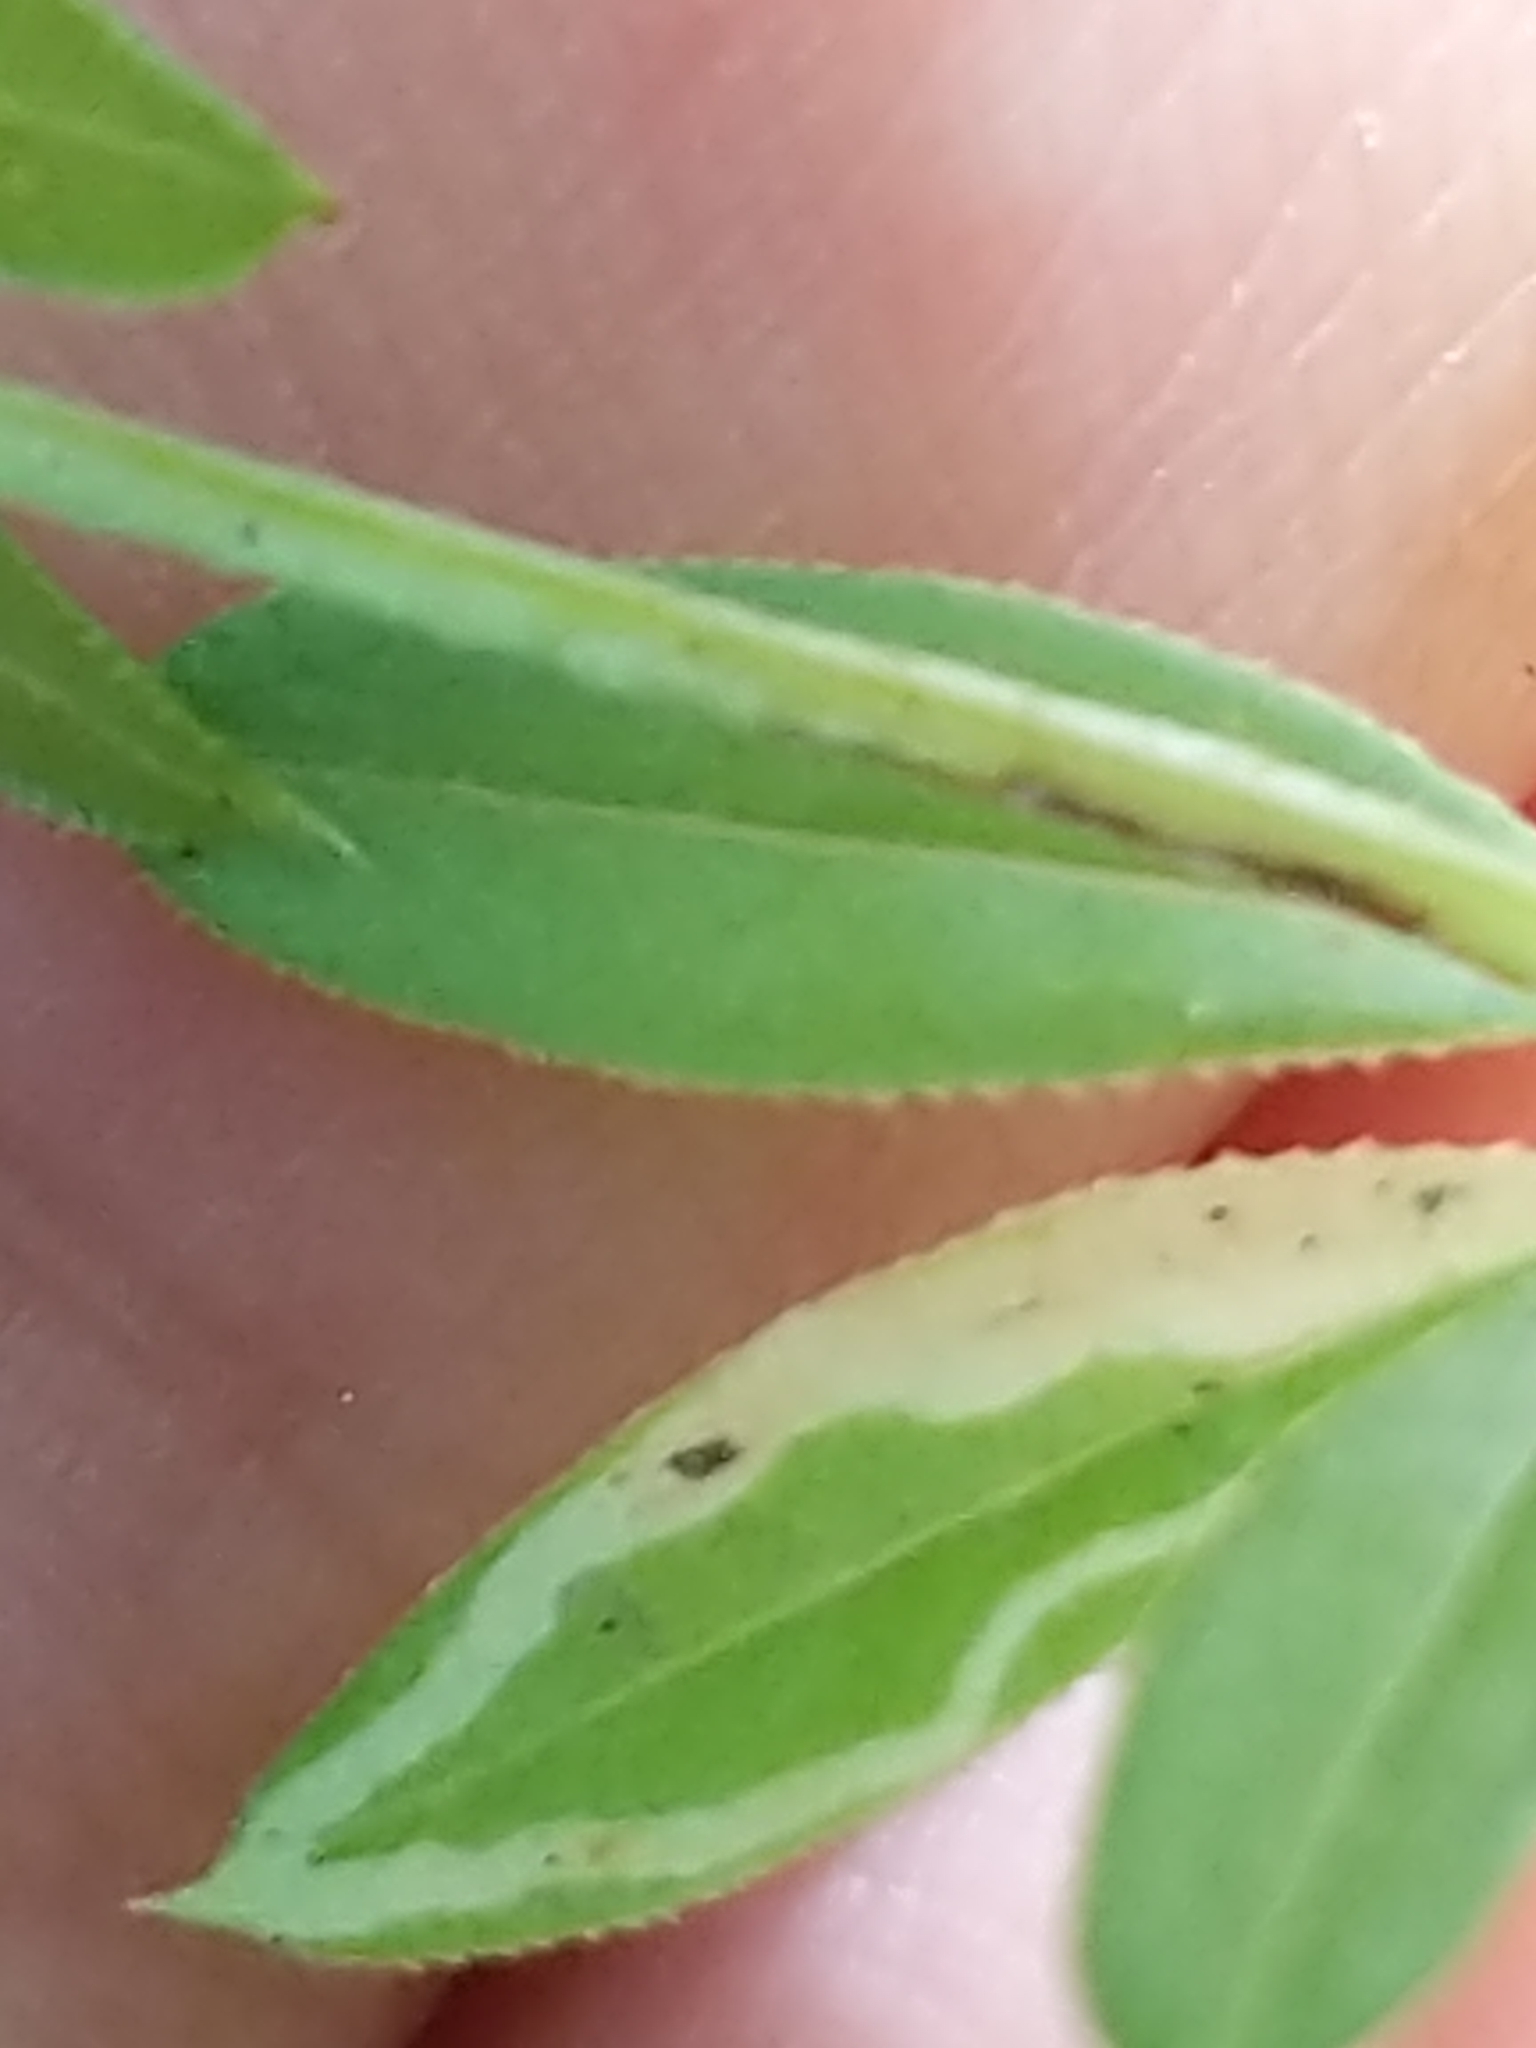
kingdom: Animalia
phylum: Arthropoda
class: Insecta
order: Diptera
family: Agromyzidae
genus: Liriomyza
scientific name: Liriomyza galiivora
